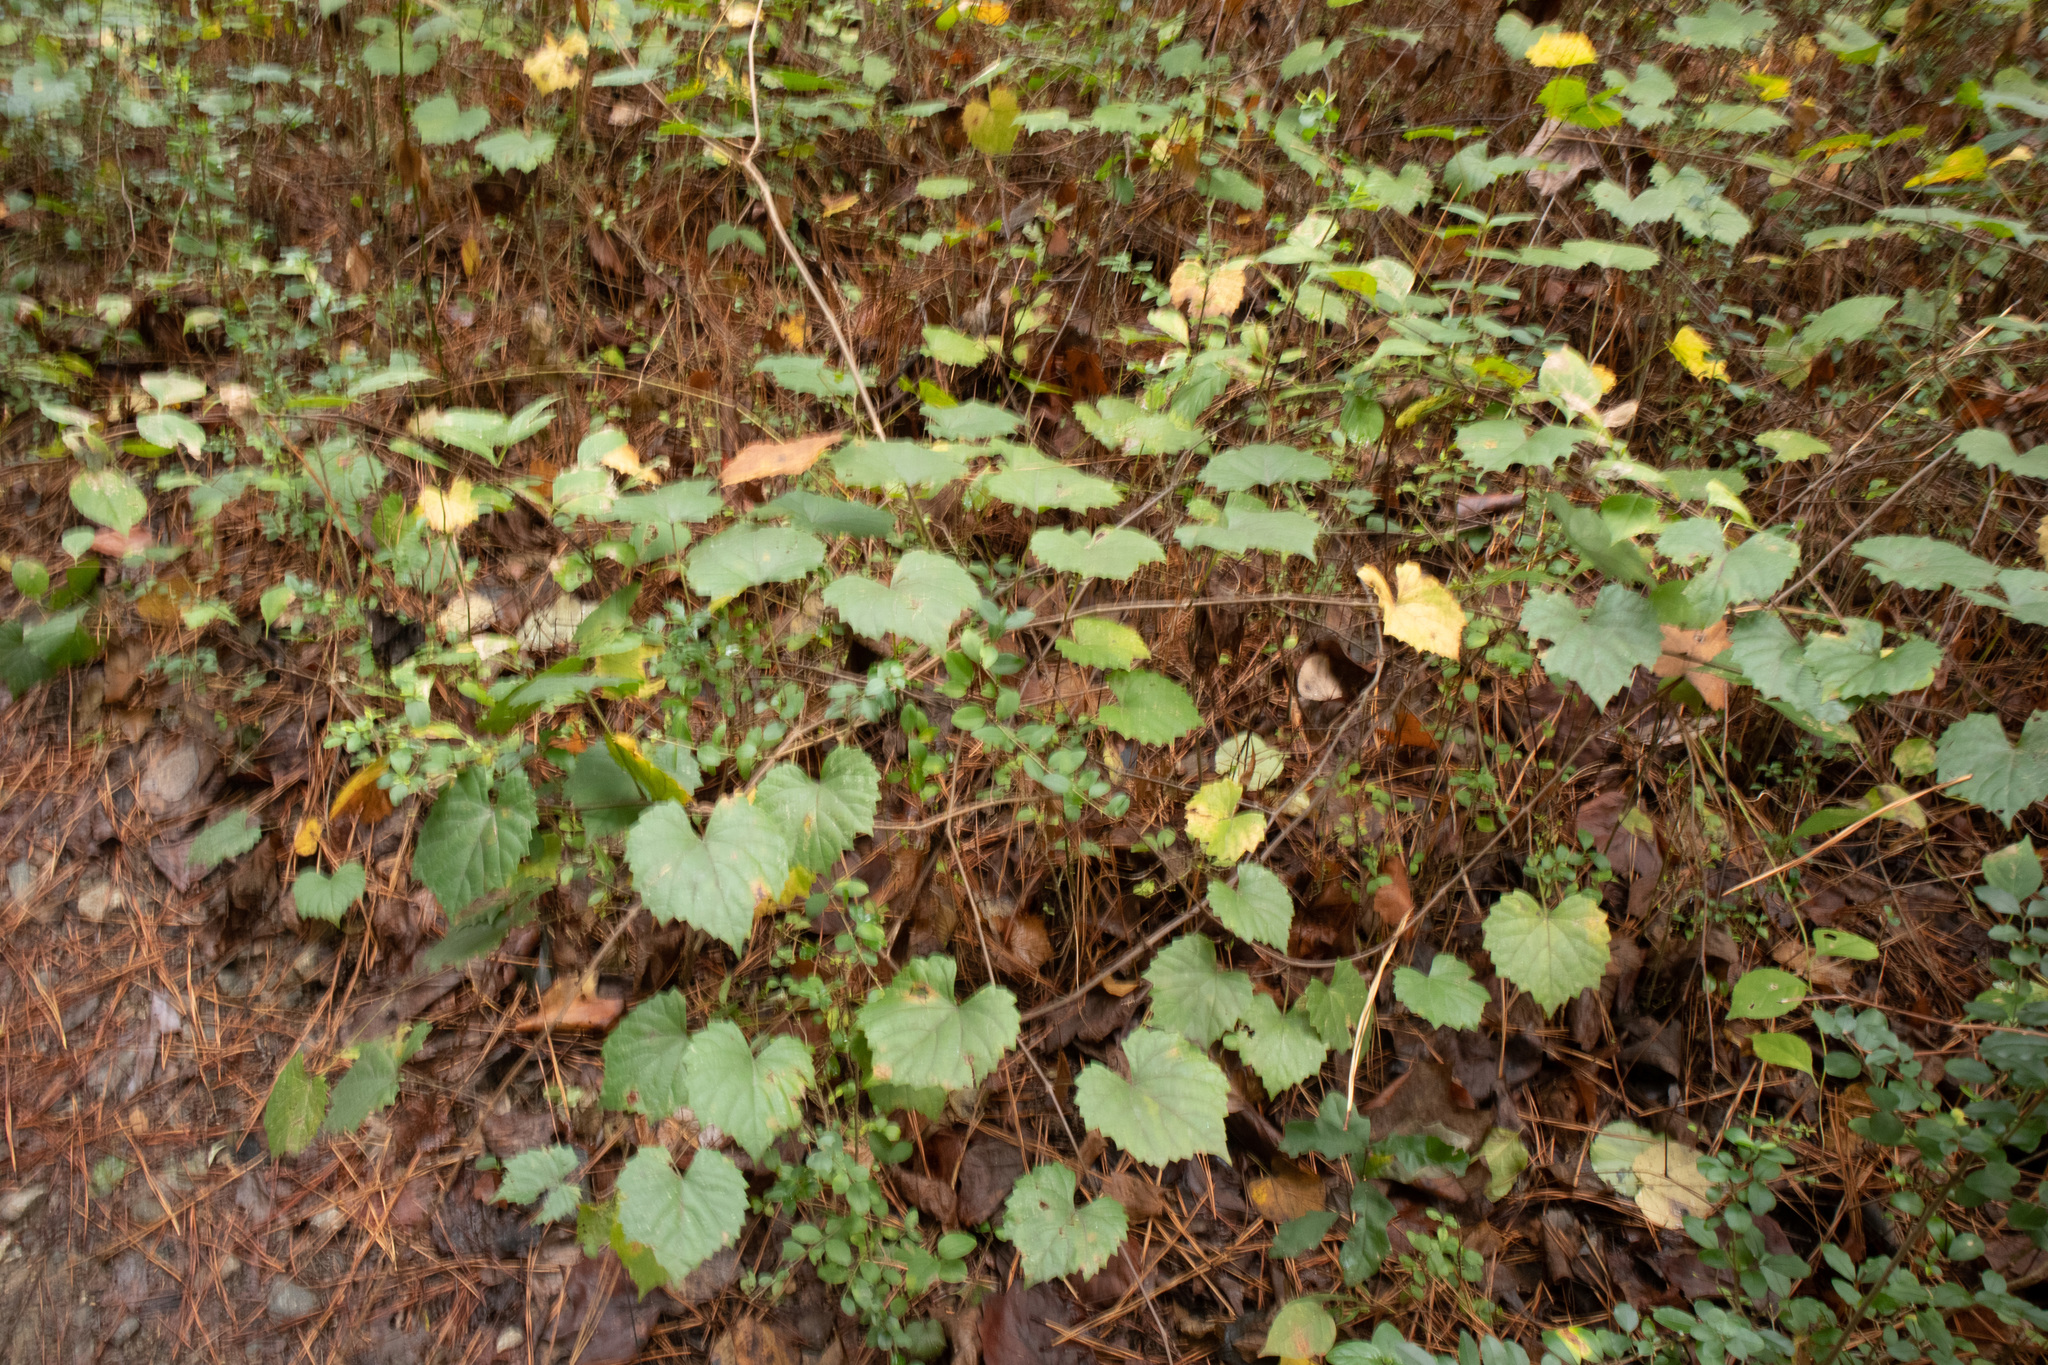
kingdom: Plantae
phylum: Tracheophyta
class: Magnoliopsida
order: Vitales
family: Vitaceae
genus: Vitis
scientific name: Vitis rotundifolia
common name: Muscadine grape
